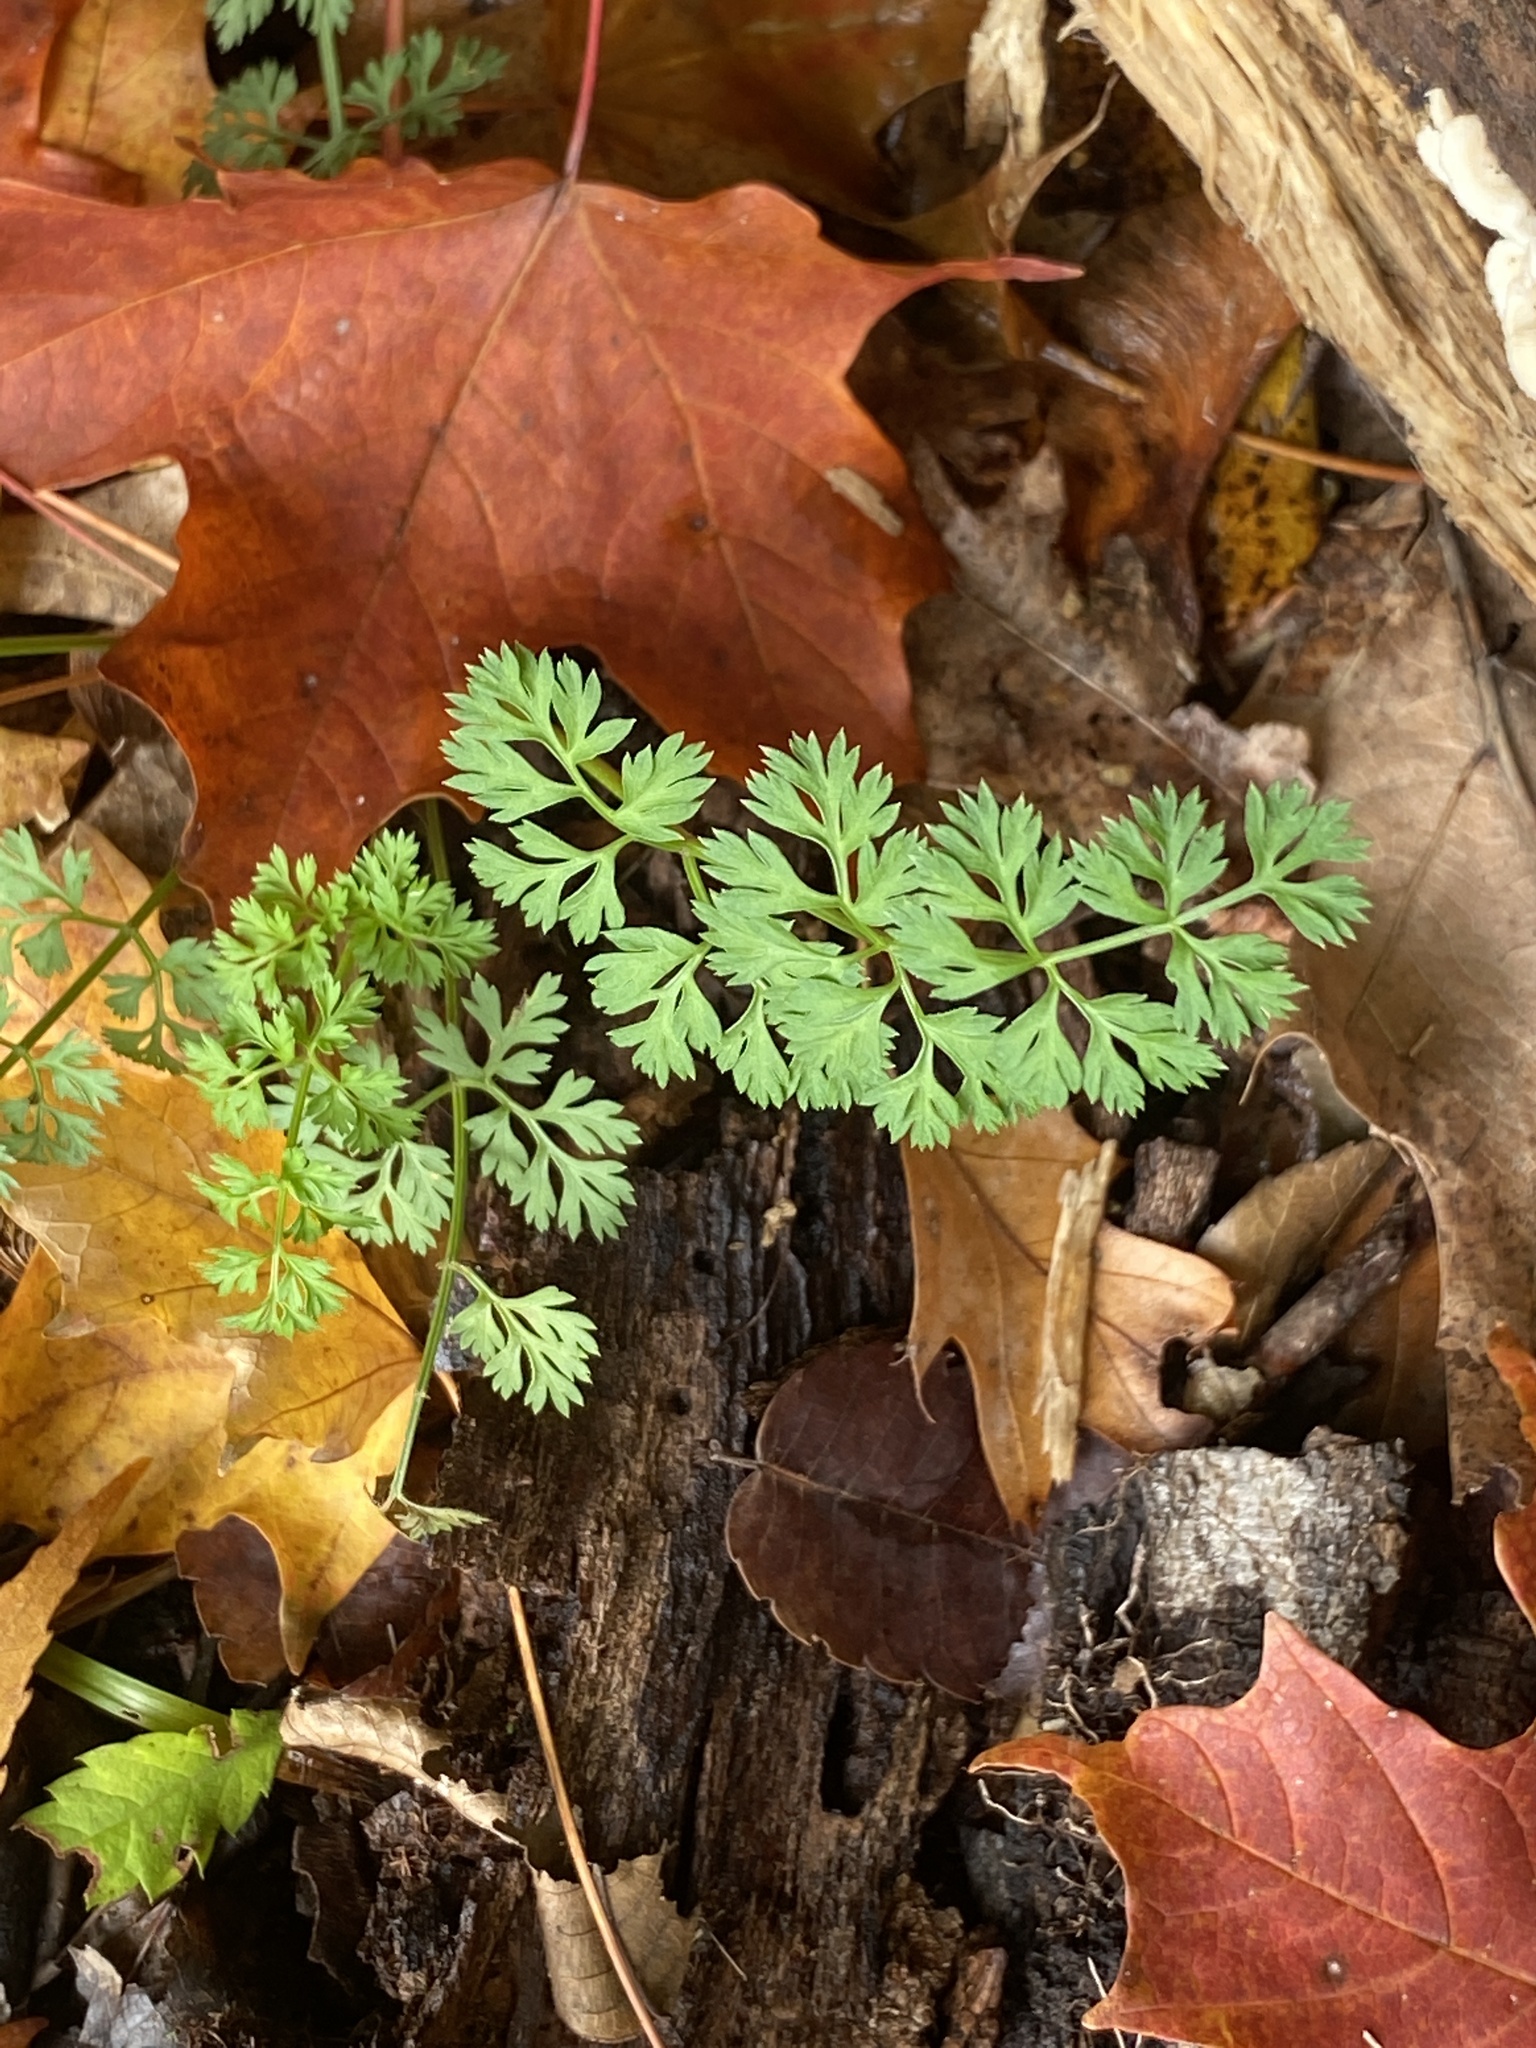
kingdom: Plantae
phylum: Tracheophyta
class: Magnoliopsida
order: Apiales
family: Apiaceae
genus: Daucus
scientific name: Daucus carota
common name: Wild carrot
